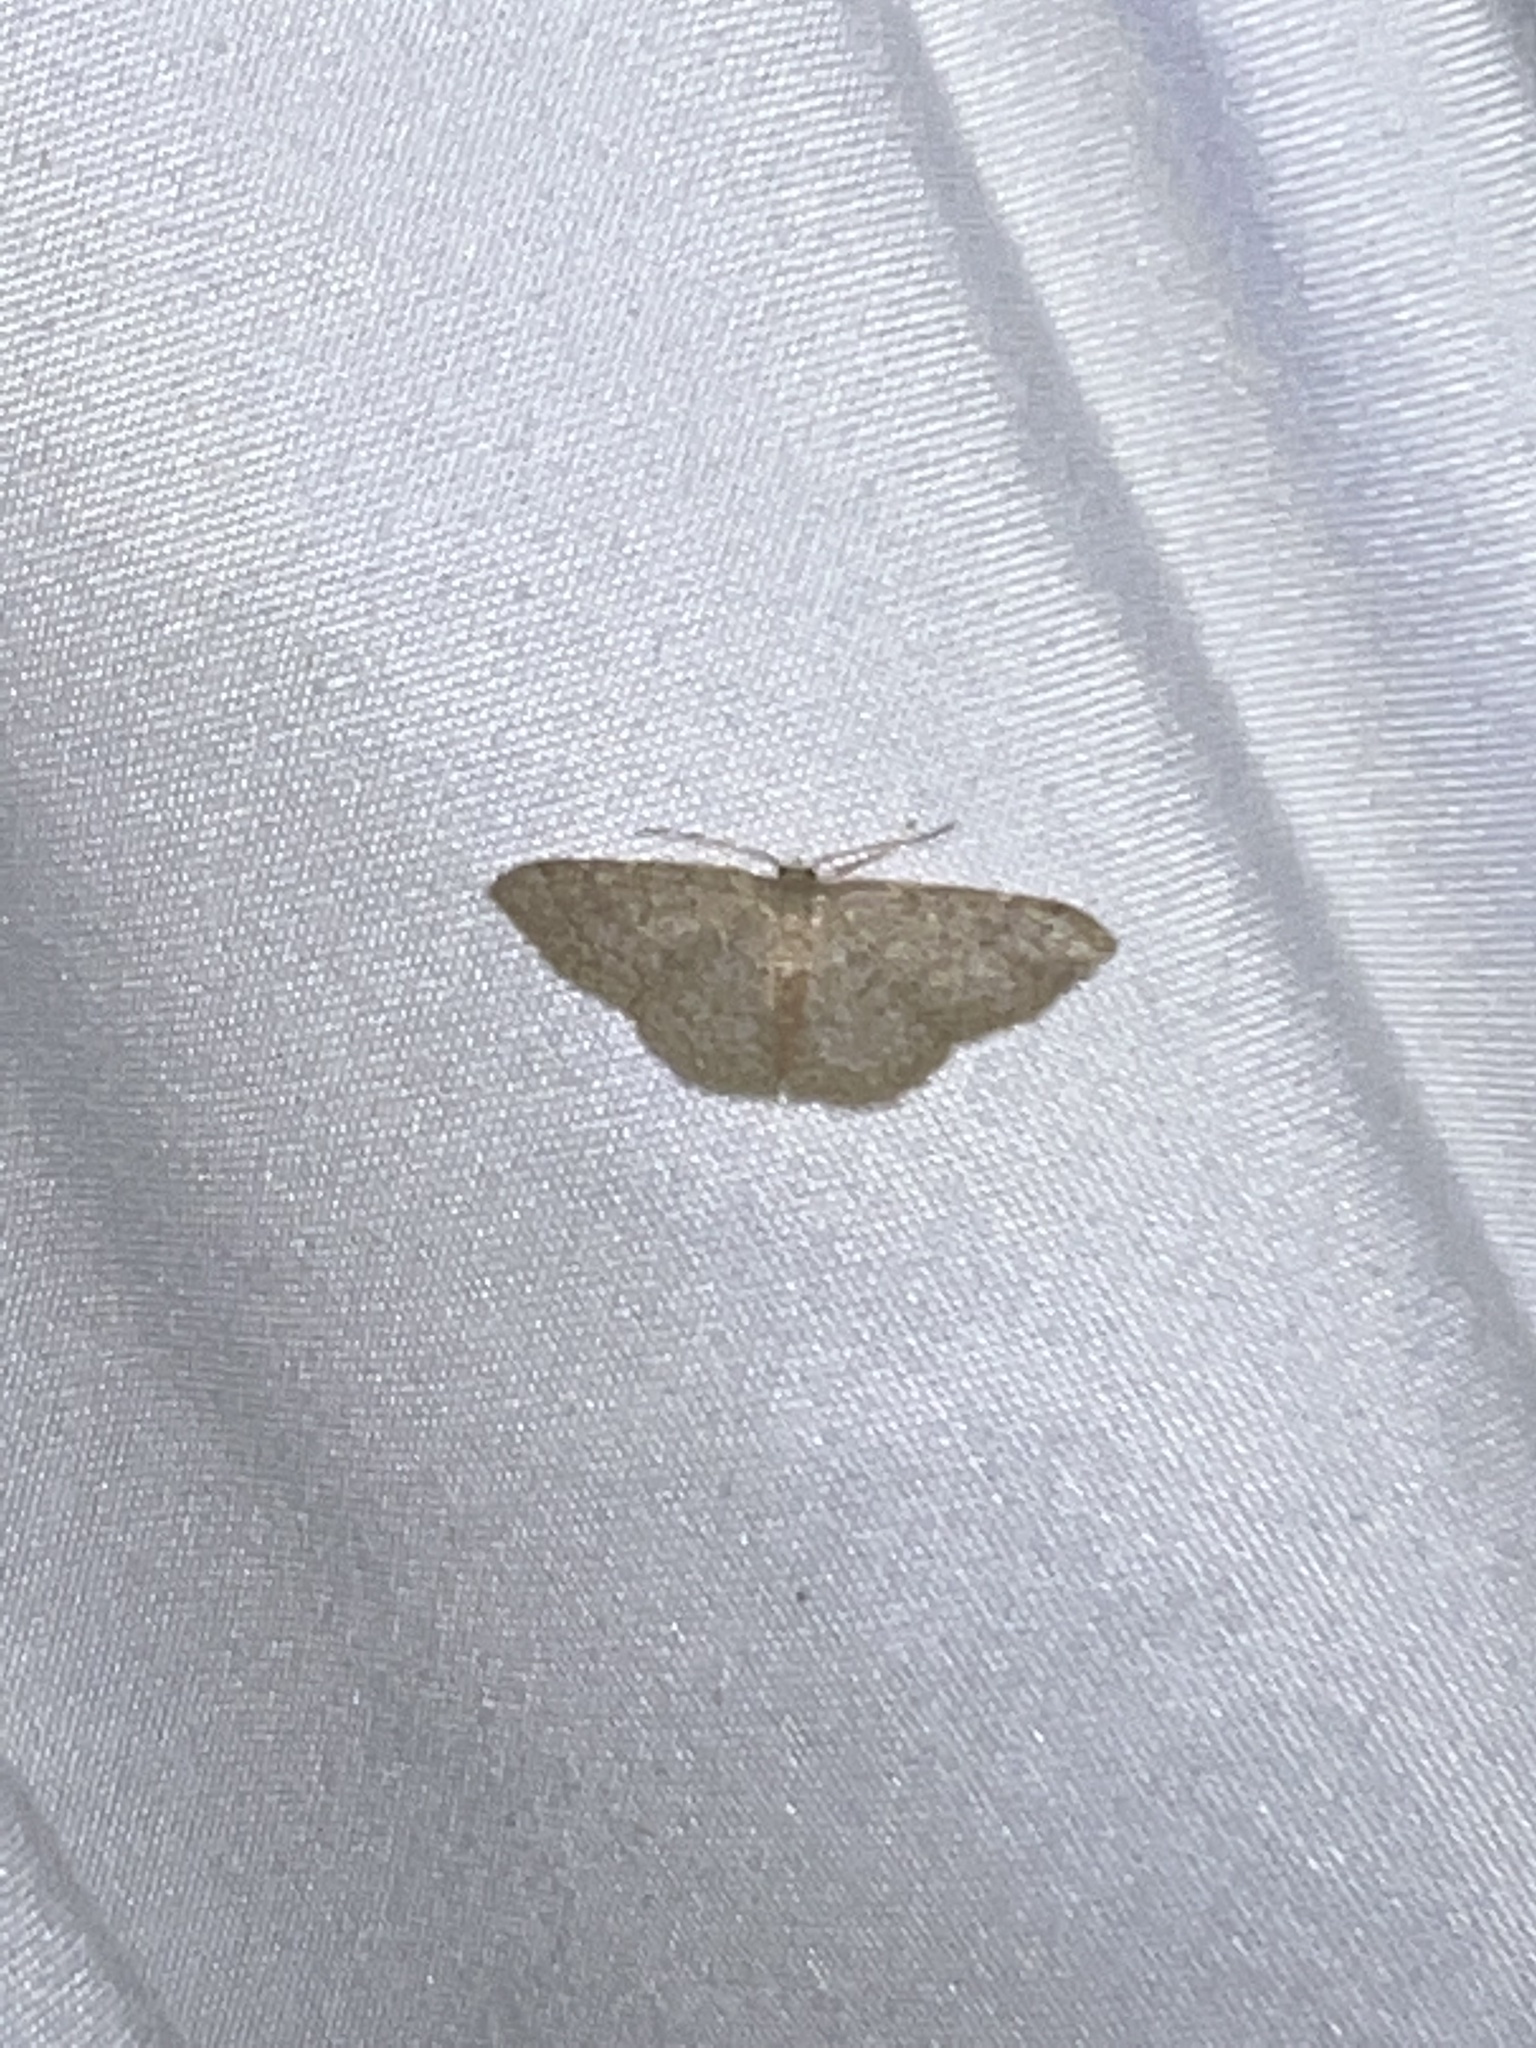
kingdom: Animalia
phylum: Arthropoda
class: Insecta
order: Lepidoptera
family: Geometridae
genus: Pleuroprucha
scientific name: Pleuroprucha insulsaria
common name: Common tan wave
